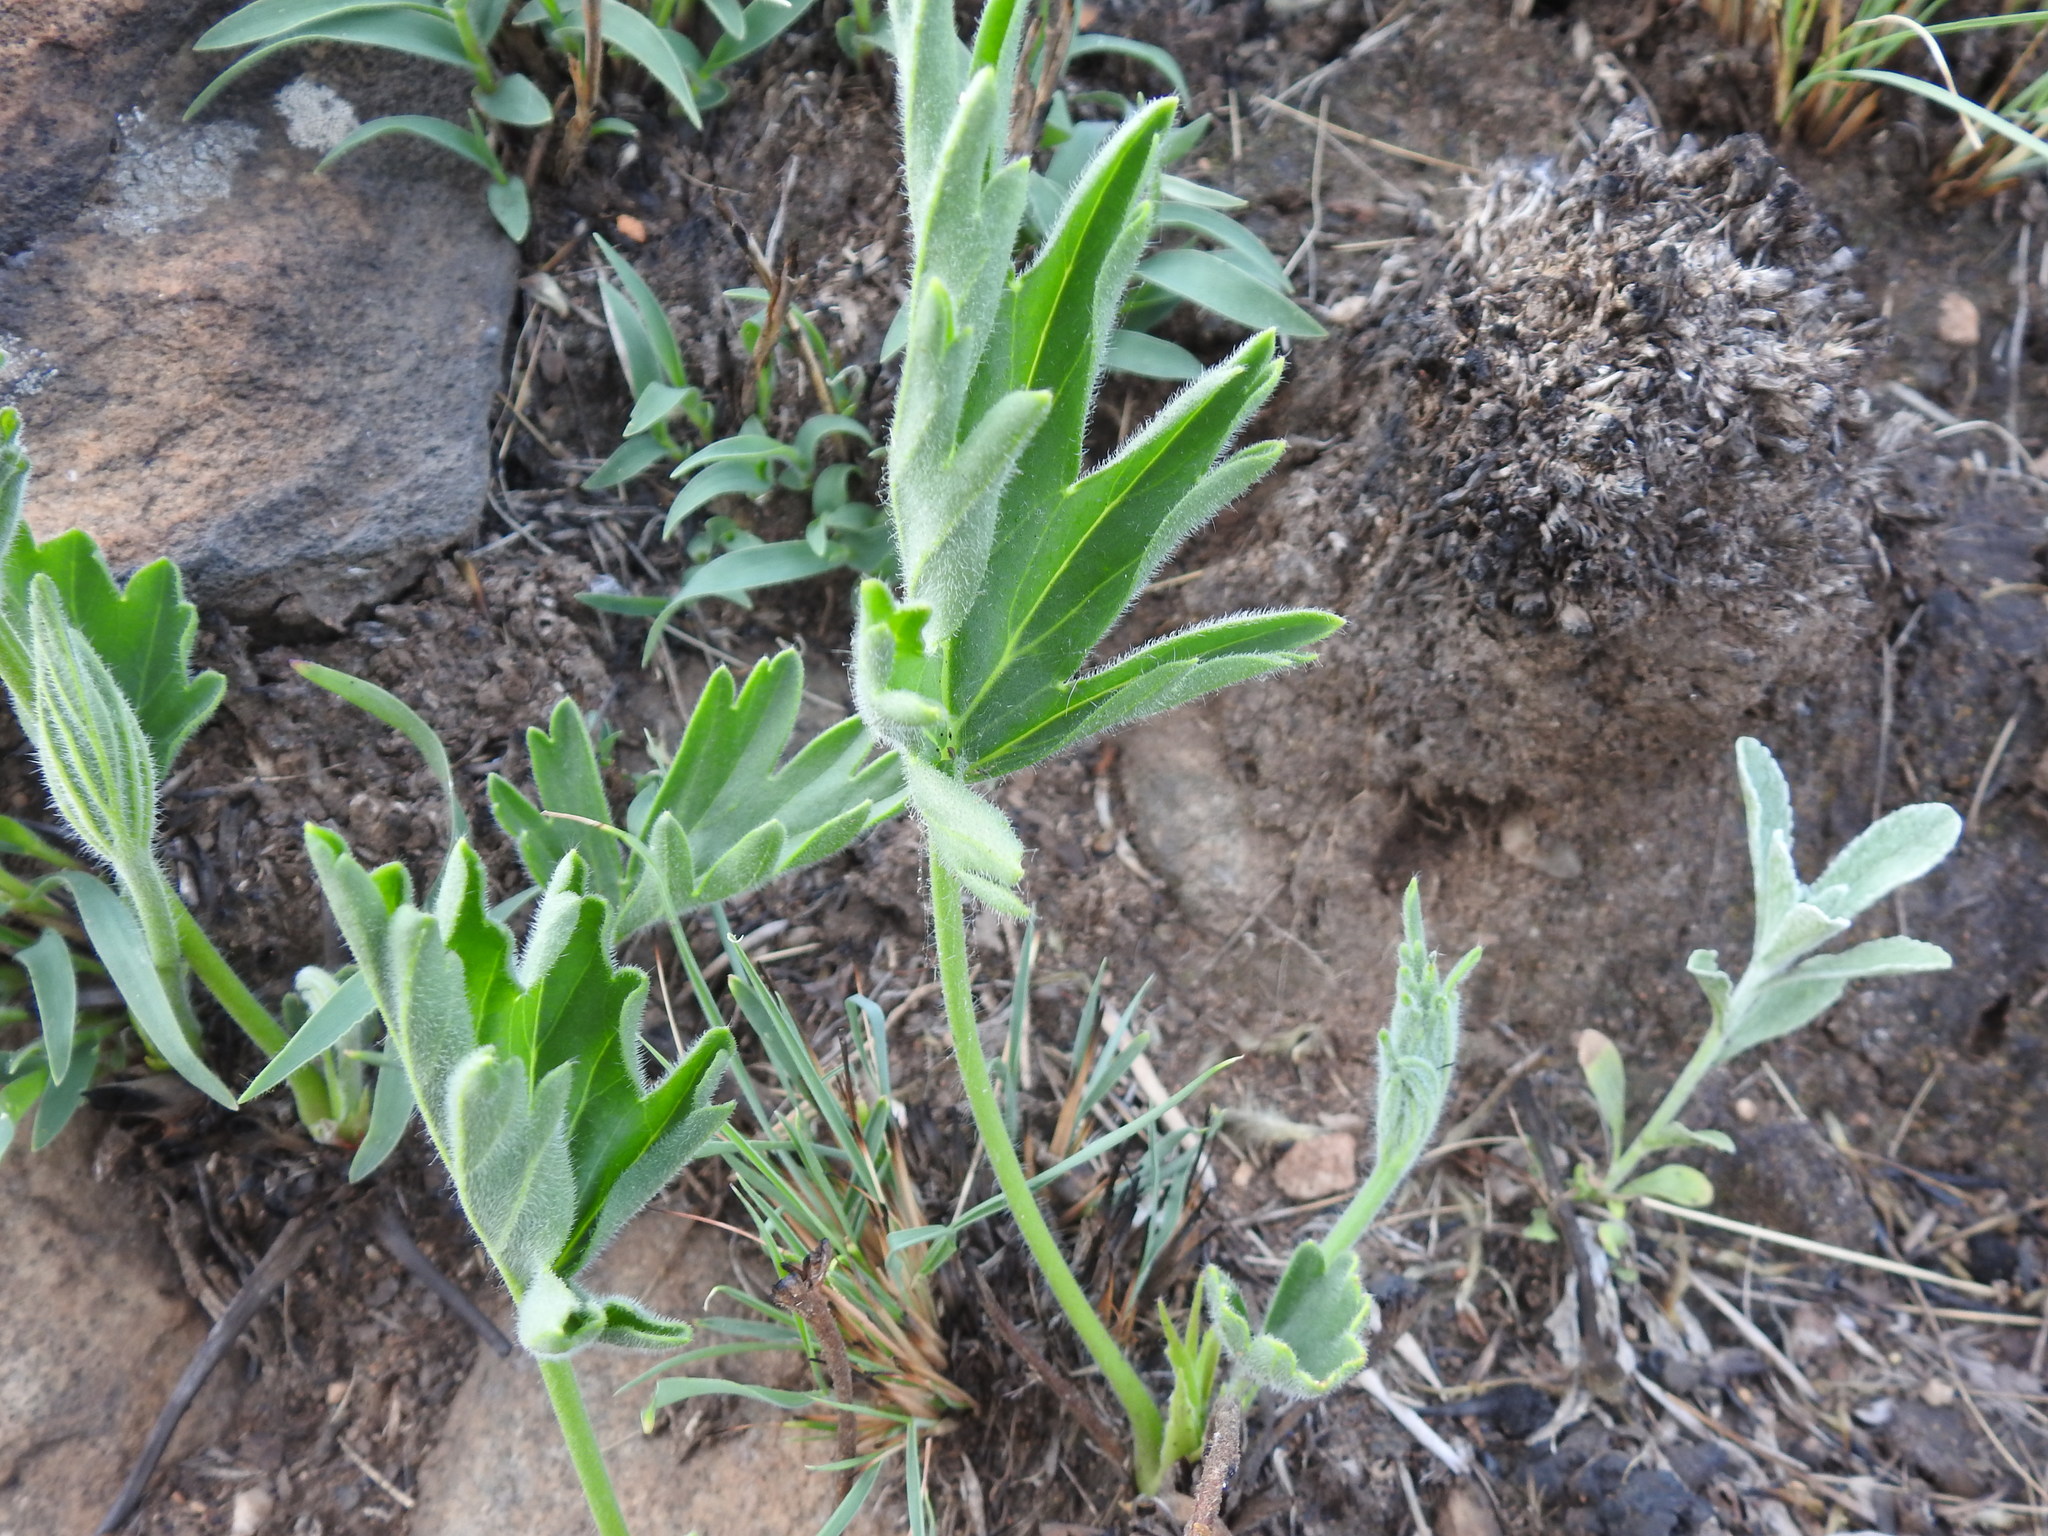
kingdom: Plantae
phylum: Tracheophyta
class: Magnoliopsida
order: Geraniales
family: Geraniaceae
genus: Pelargonium
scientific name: Pelargonium luridum
